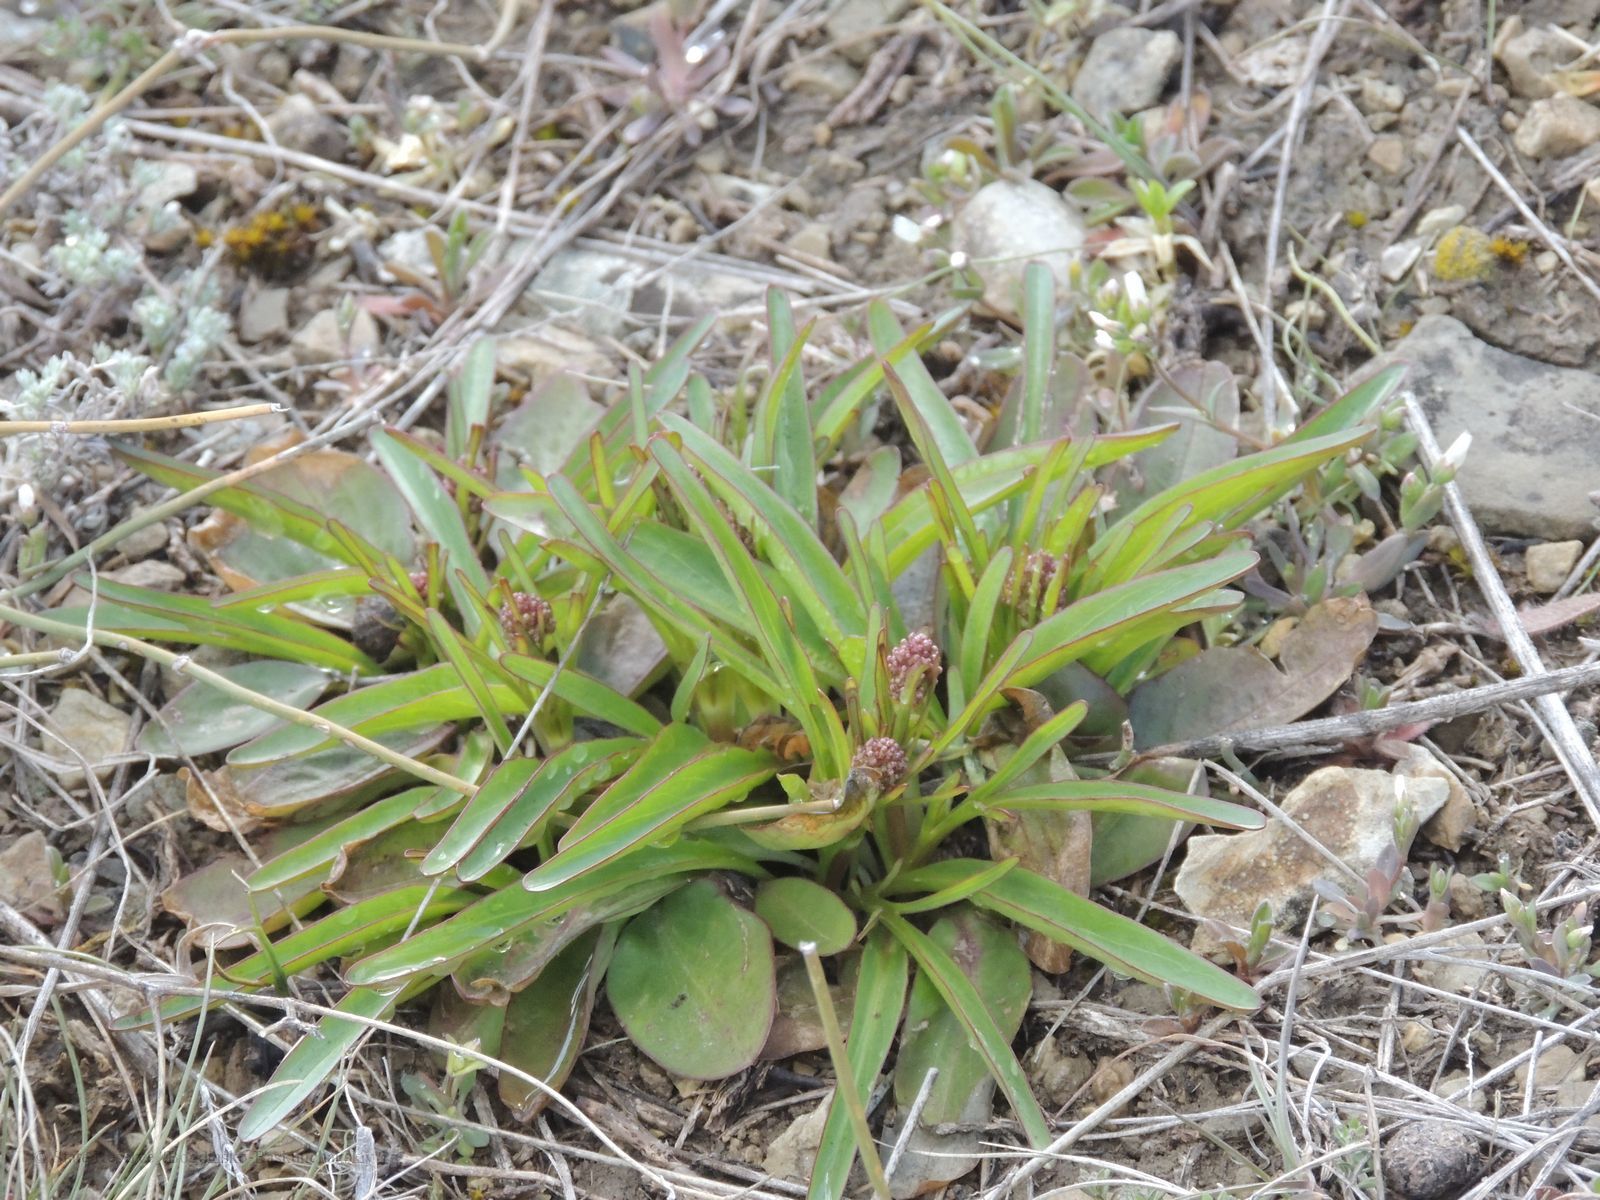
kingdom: Plantae
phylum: Tracheophyta
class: Magnoliopsida
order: Dipsacales
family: Caprifoliaceae
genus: Valeriana
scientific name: Valeriana tuberosa
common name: Tuberous valerian
